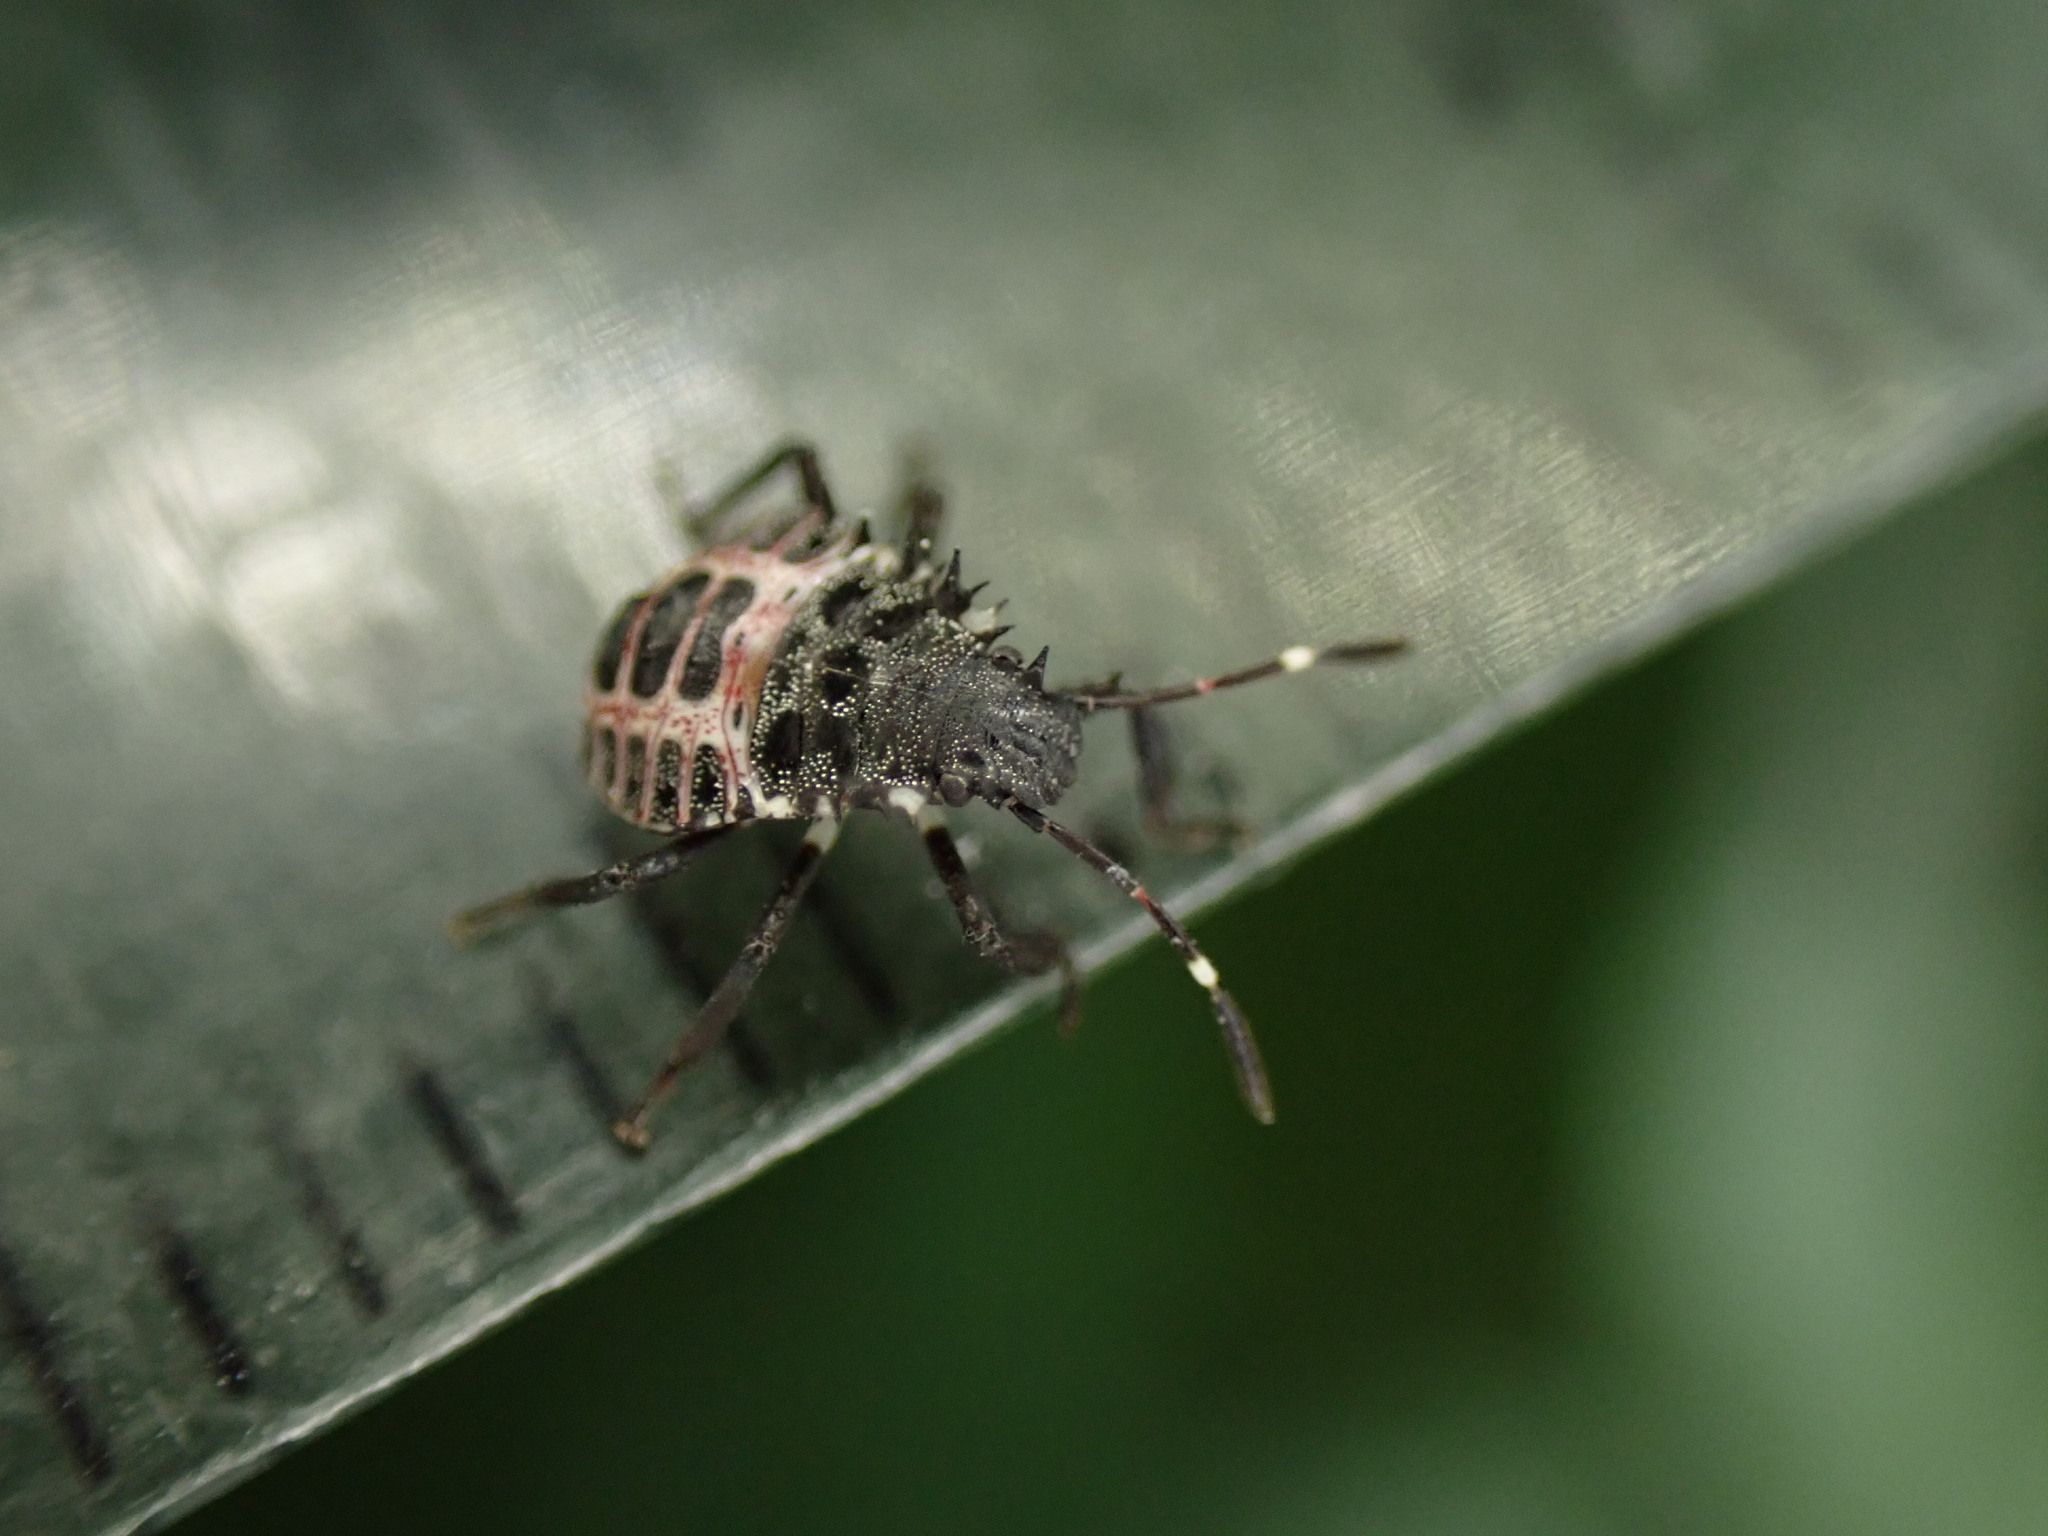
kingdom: Animalia
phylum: Arthropoda
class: Insecta
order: Hemiptera
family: Pentatomidae
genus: Halyomorpha
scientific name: Halyomorpha halys
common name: Brown marmorated stink bug
